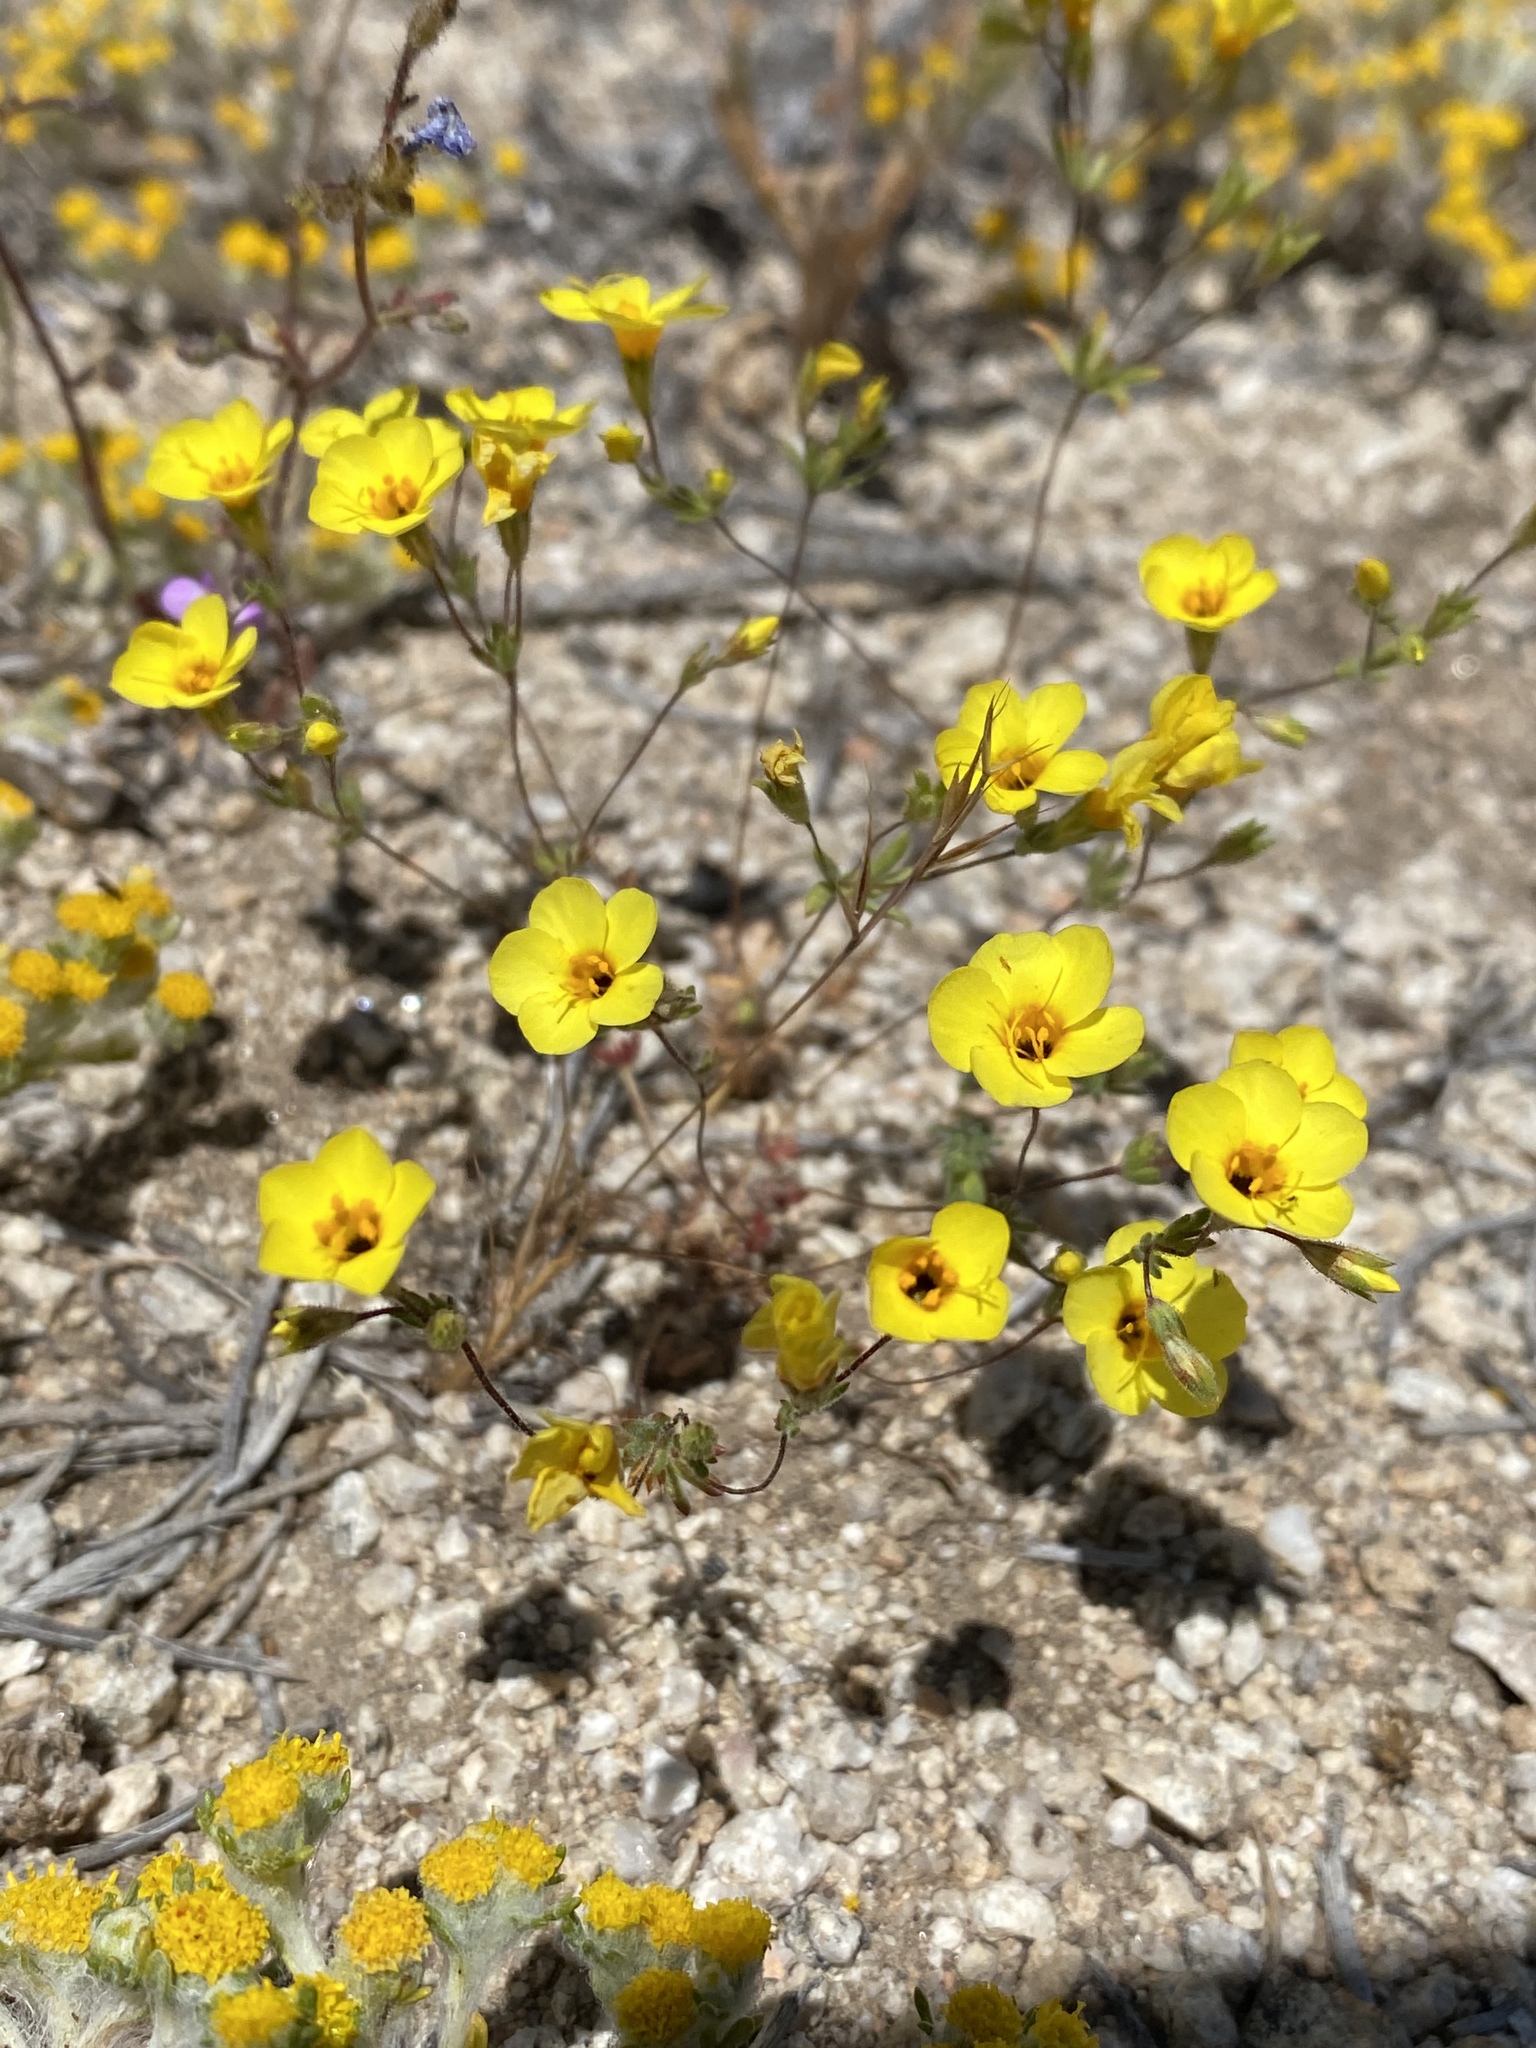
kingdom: Plantae
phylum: Tracheophyta
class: Magnoliopsida
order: Ericales
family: Polemoniaceae
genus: Leptosiphon
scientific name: Leptosiphon chrysanthus
